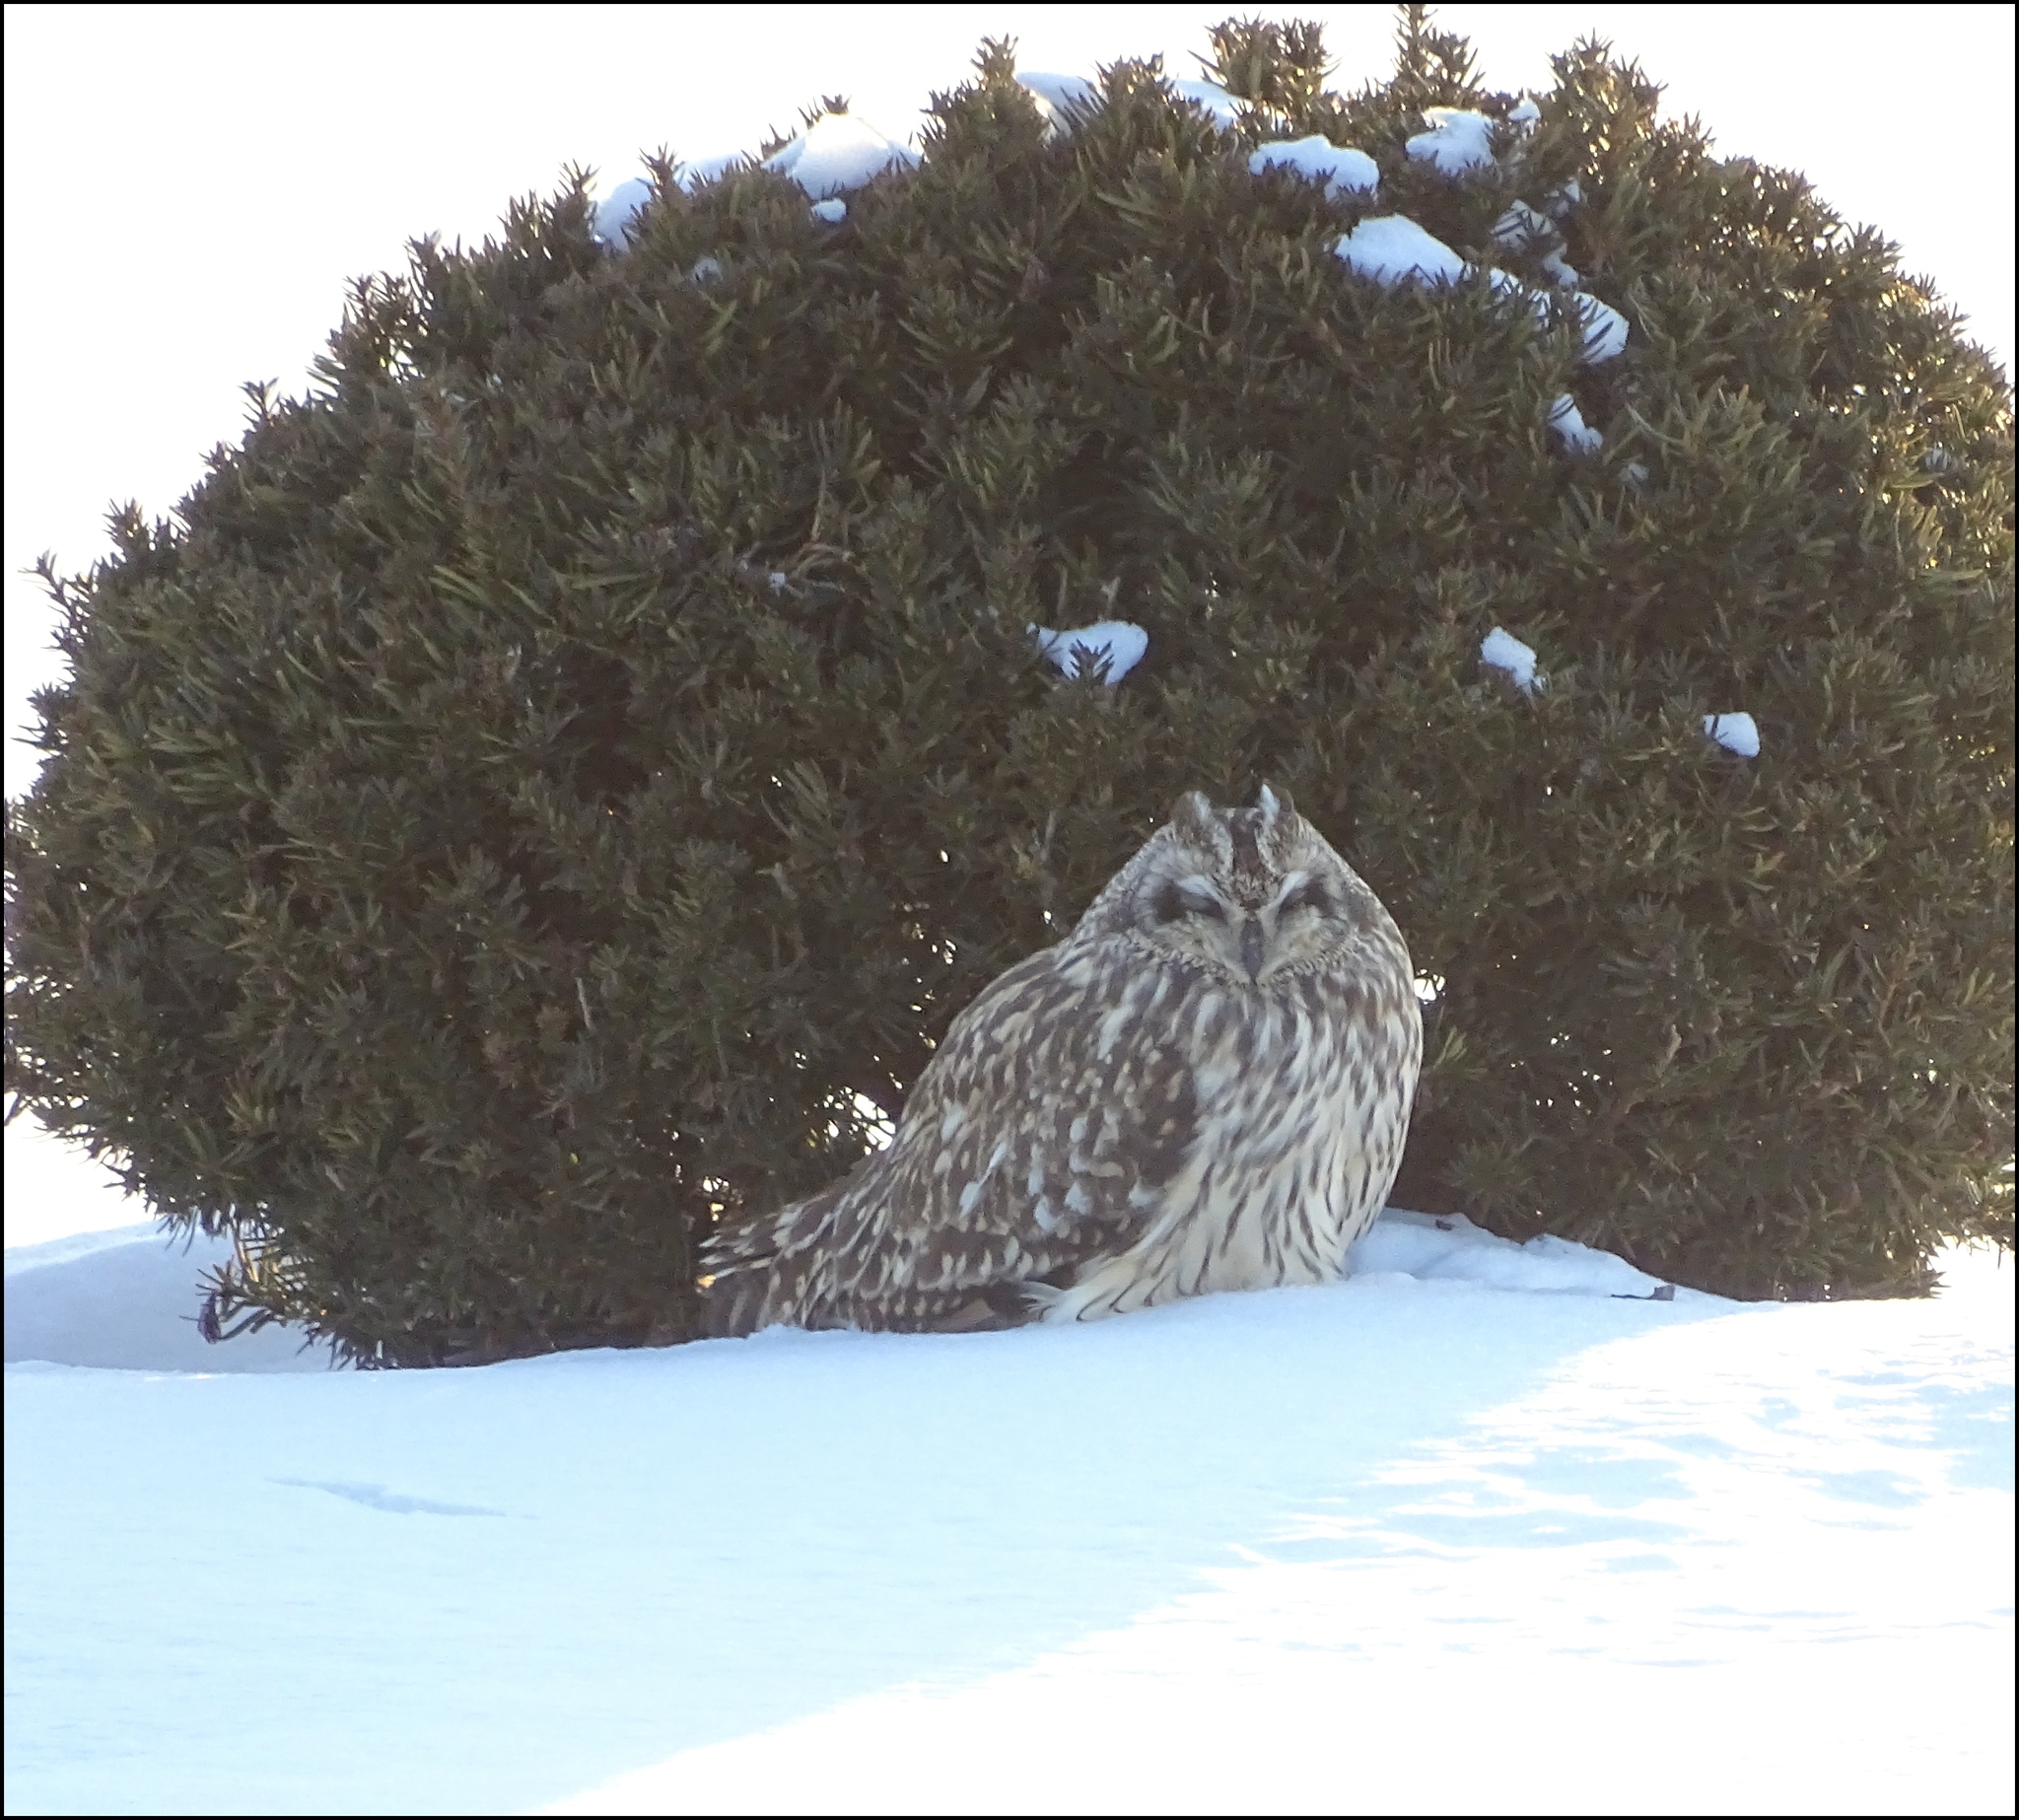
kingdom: Animalia
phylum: Chordata
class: Aves
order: Strigiformes
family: Strigidae
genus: Asio
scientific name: Asio flammeus
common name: Short-eared owl
